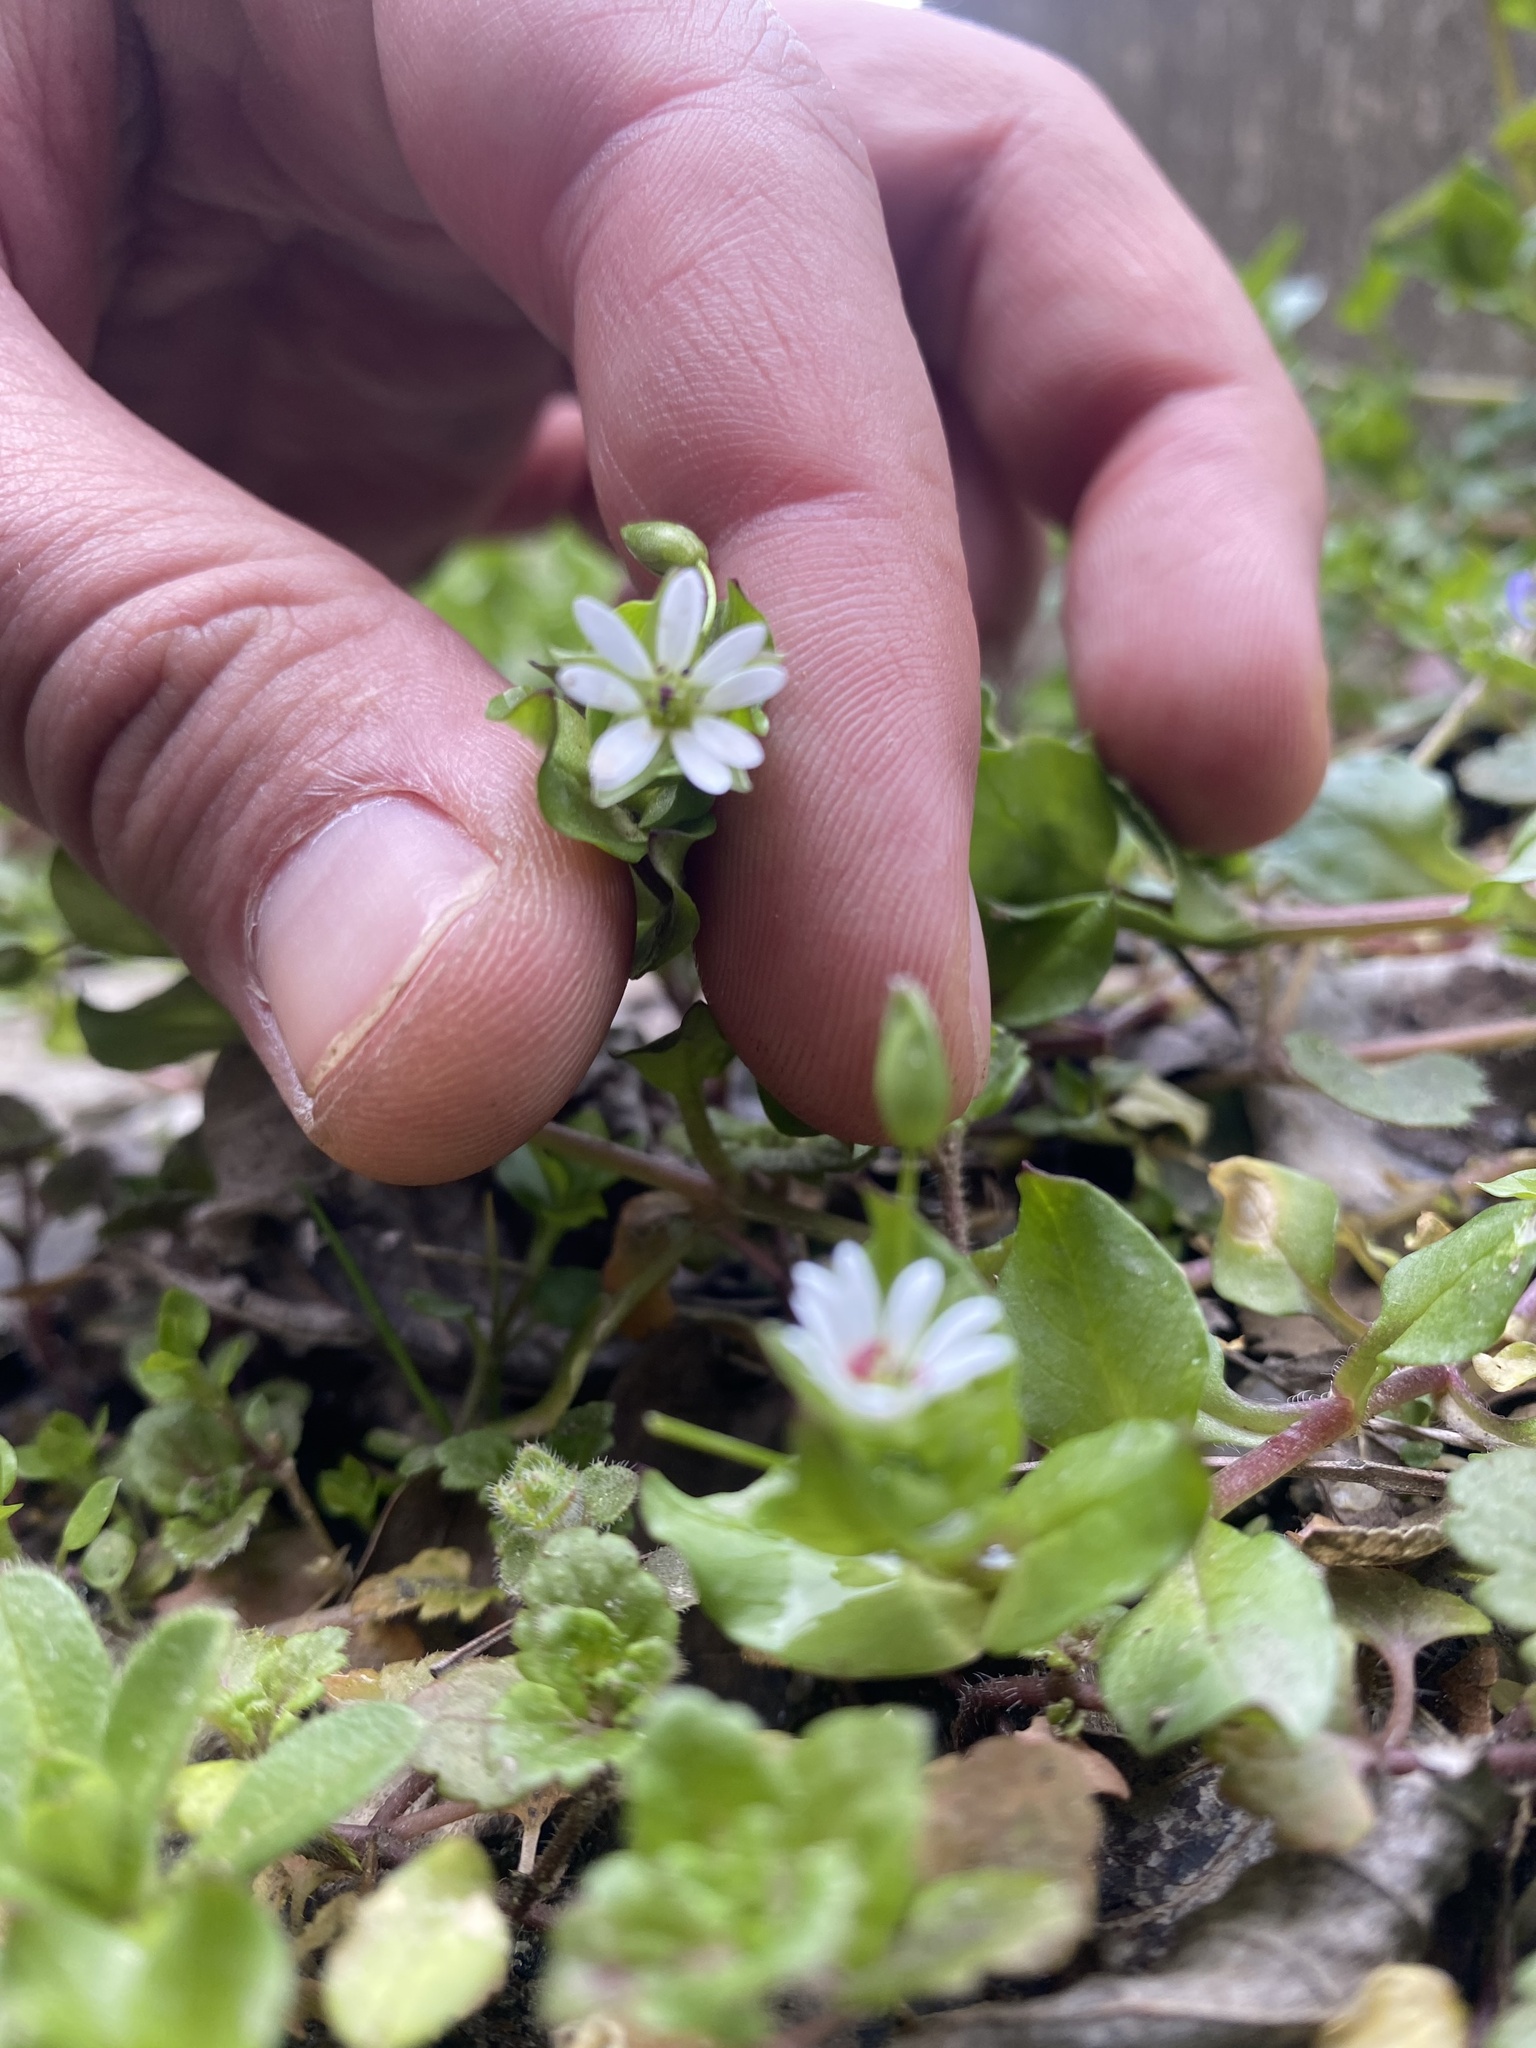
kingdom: Plantae
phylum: Tracheophyta
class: Magnoliopsida
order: Caryophyllales
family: Caryophyllaceae
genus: Stellaria
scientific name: Stellaria neglecta
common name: Greater chickweed
